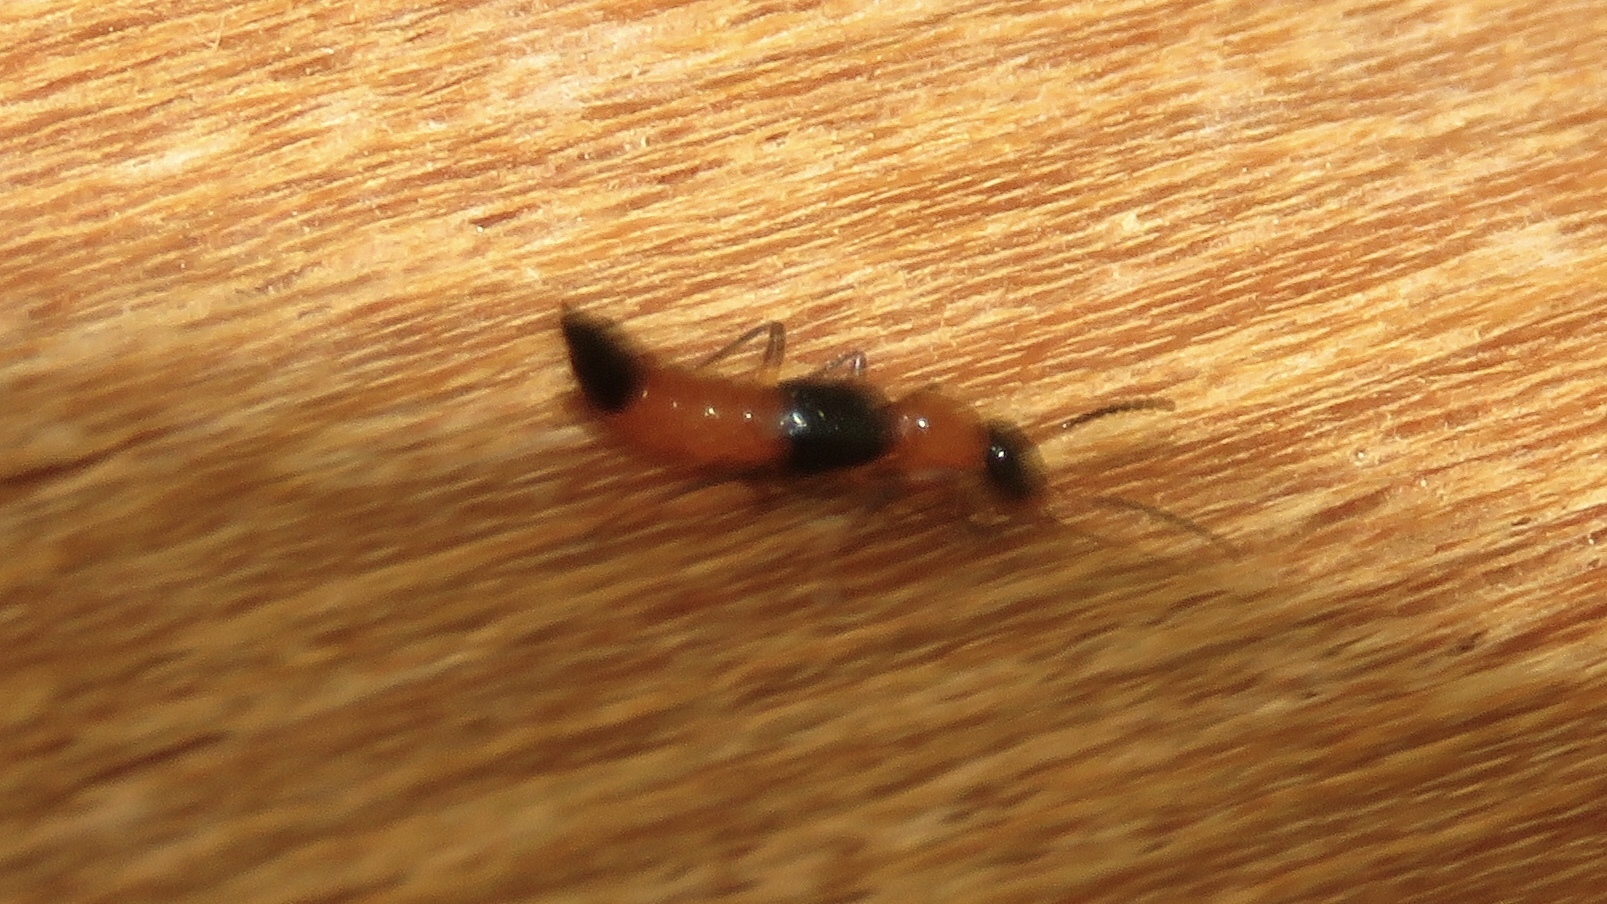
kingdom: Animalia
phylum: Arthropoda
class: Insecta
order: Coleoptera
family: Staphylinidae
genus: Paederus
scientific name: Paederus littorarius
